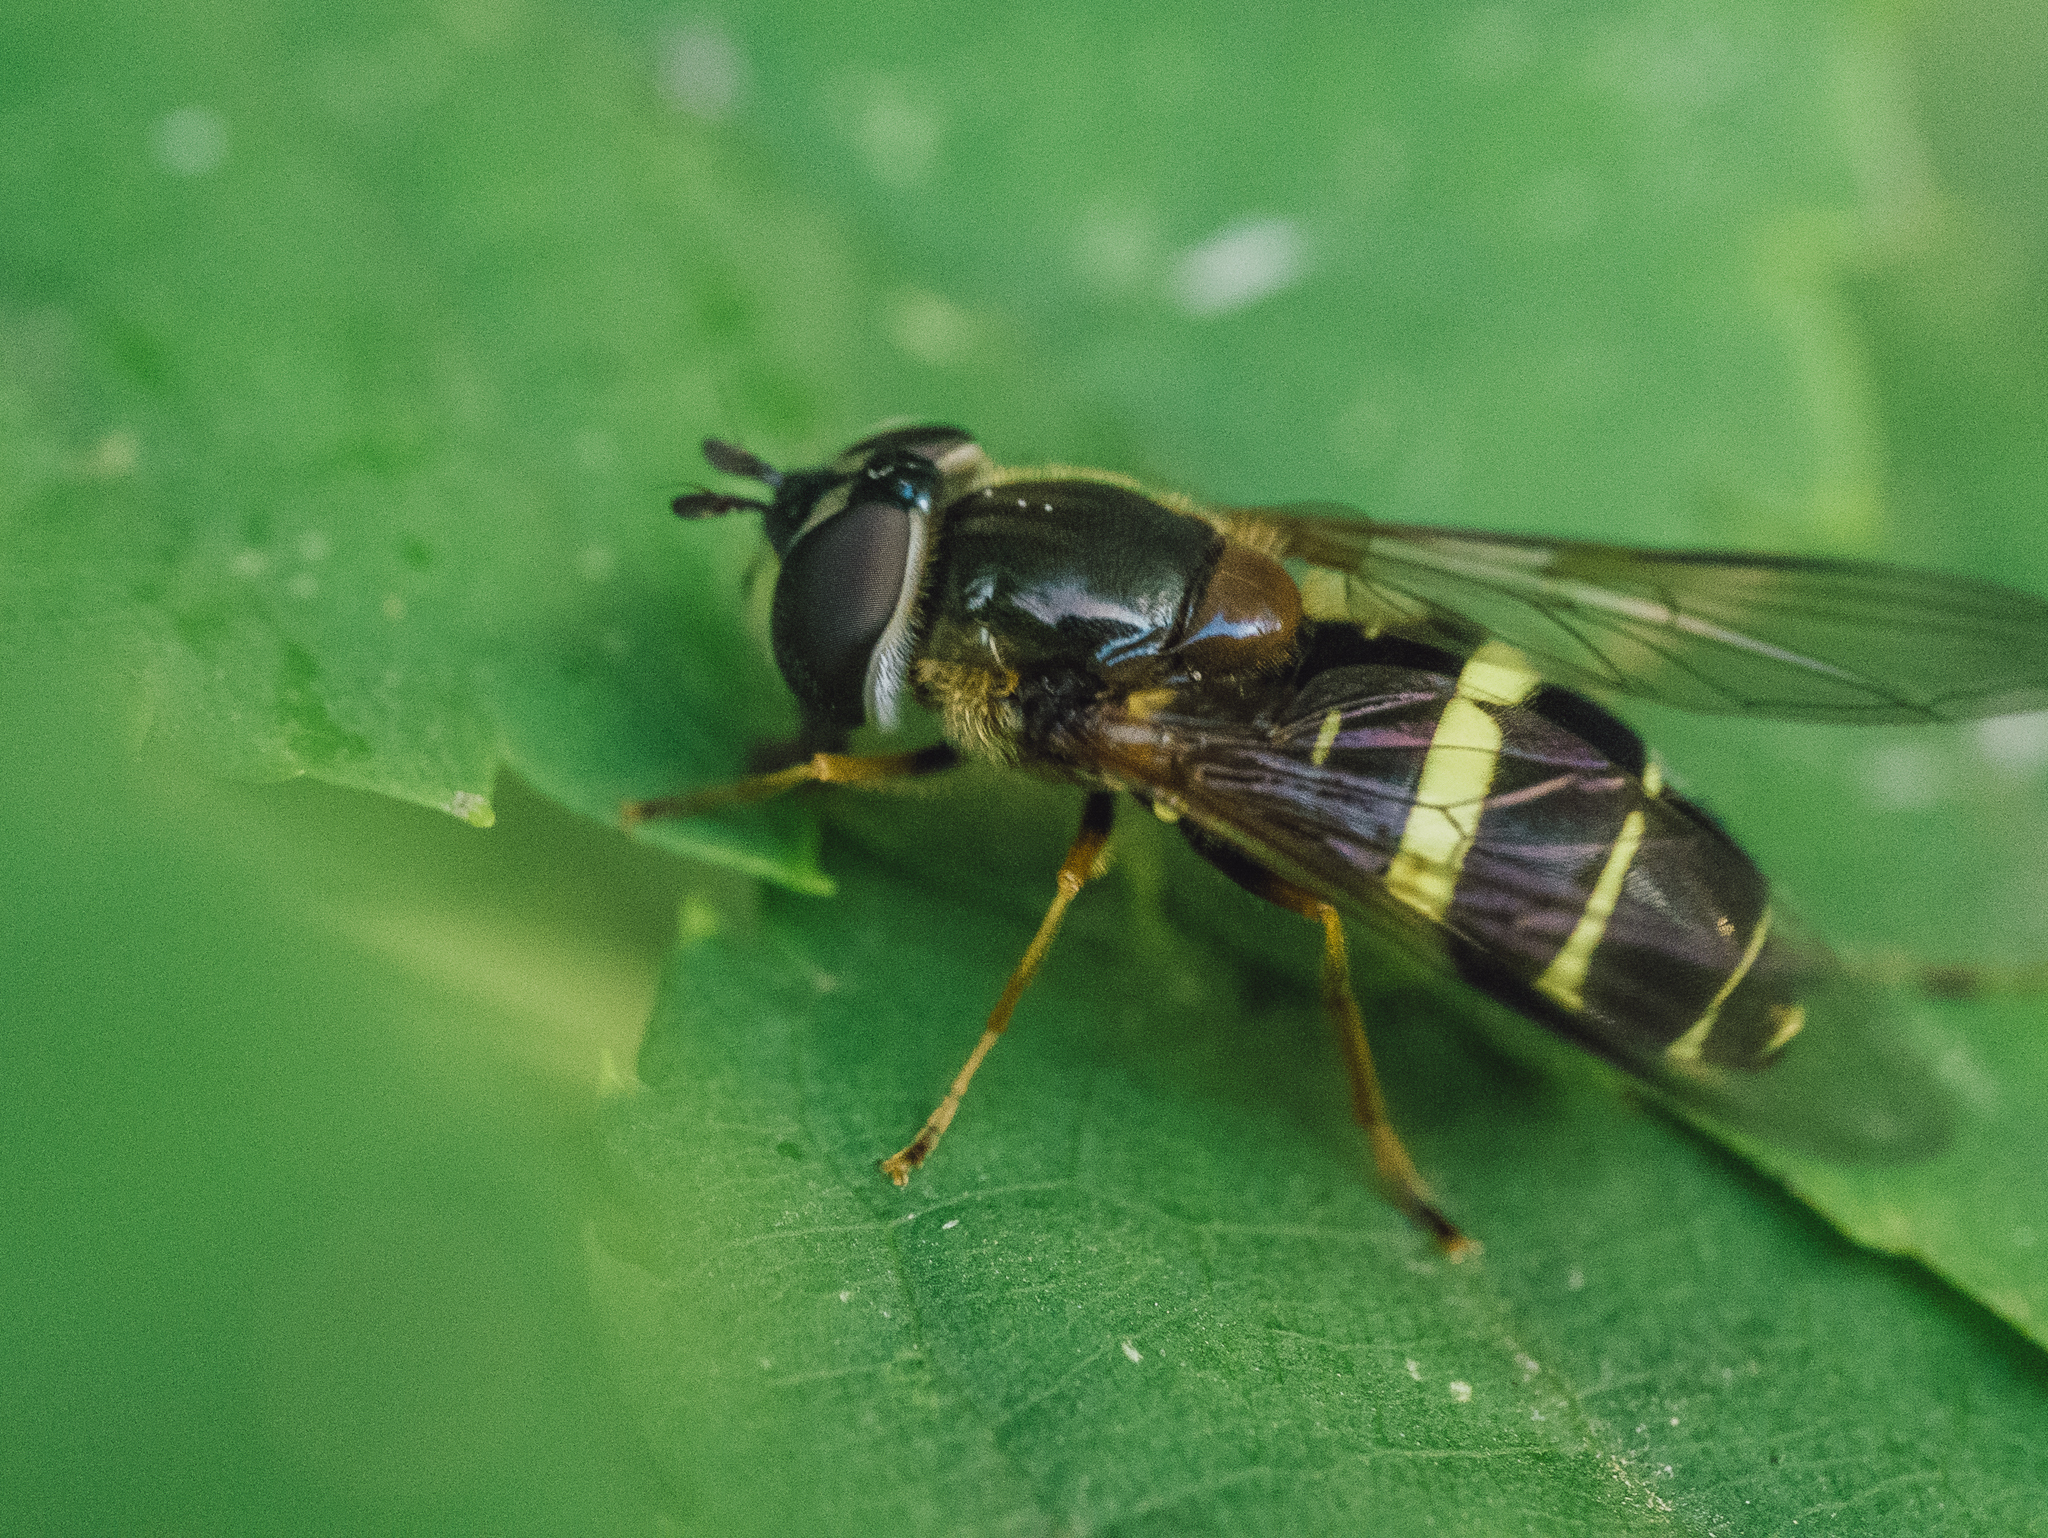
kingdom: Animalia
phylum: Arthropoda
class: Insecta
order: Diptera
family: Syrphidae
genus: Dasysyrphus
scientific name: Dasysyrphus tricinctus
